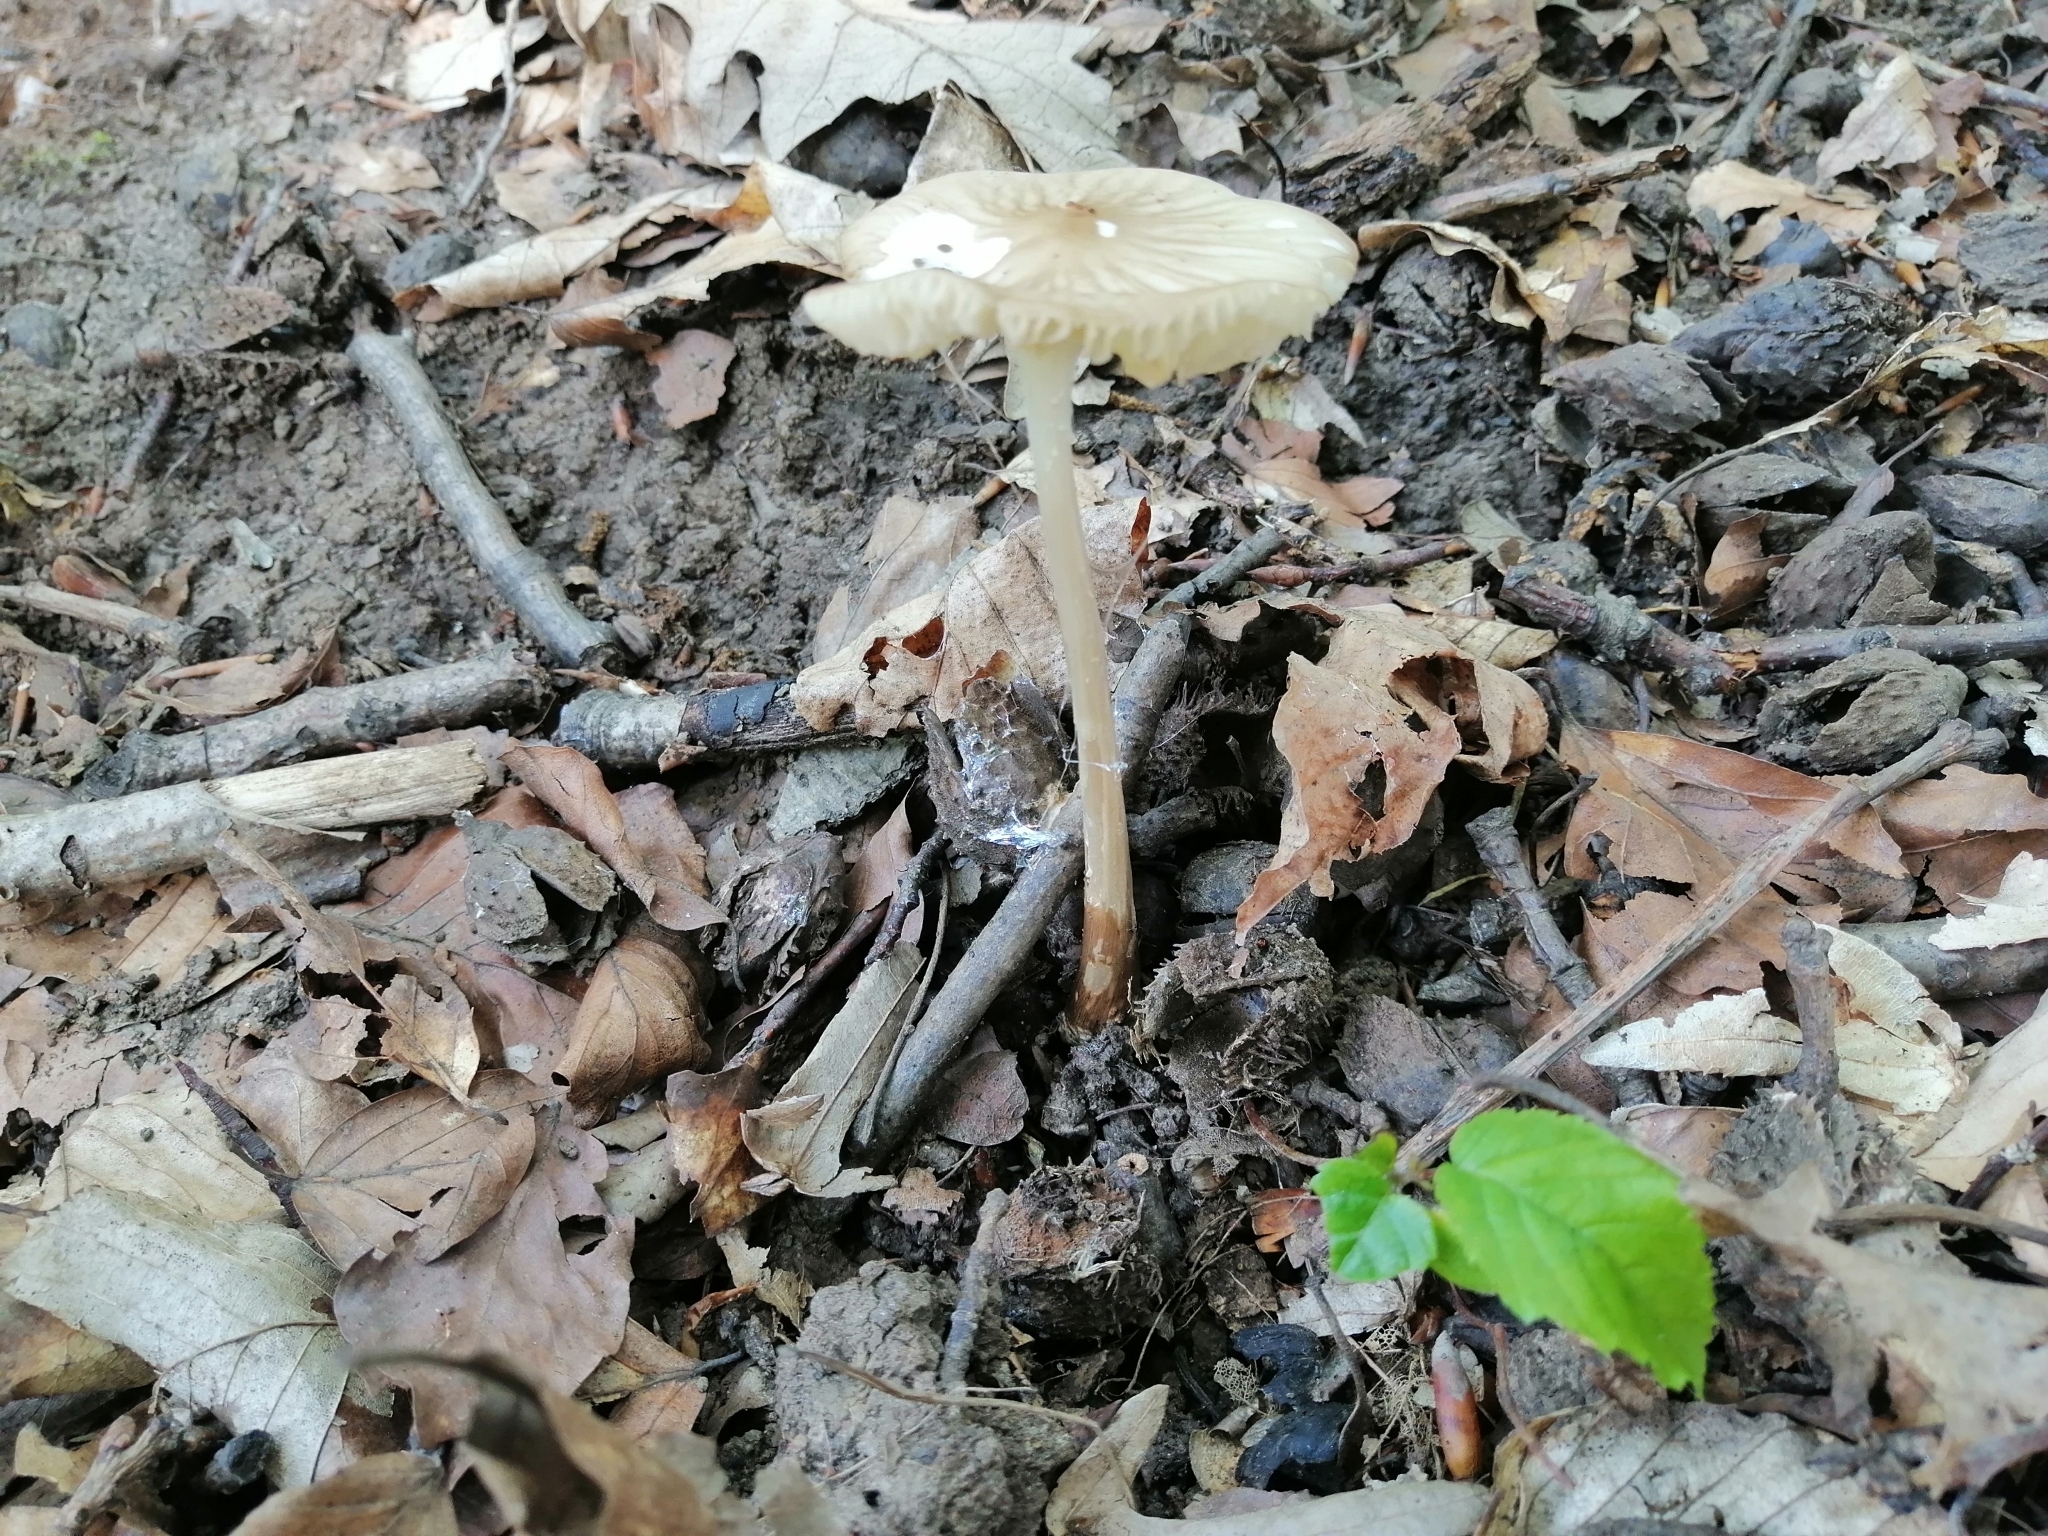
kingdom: Fungi
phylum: Basidiomycota
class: Agaricomycetes
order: Agaricales
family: Physalacriaceae
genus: Hymenopellis
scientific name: Hymenopellis radicata
